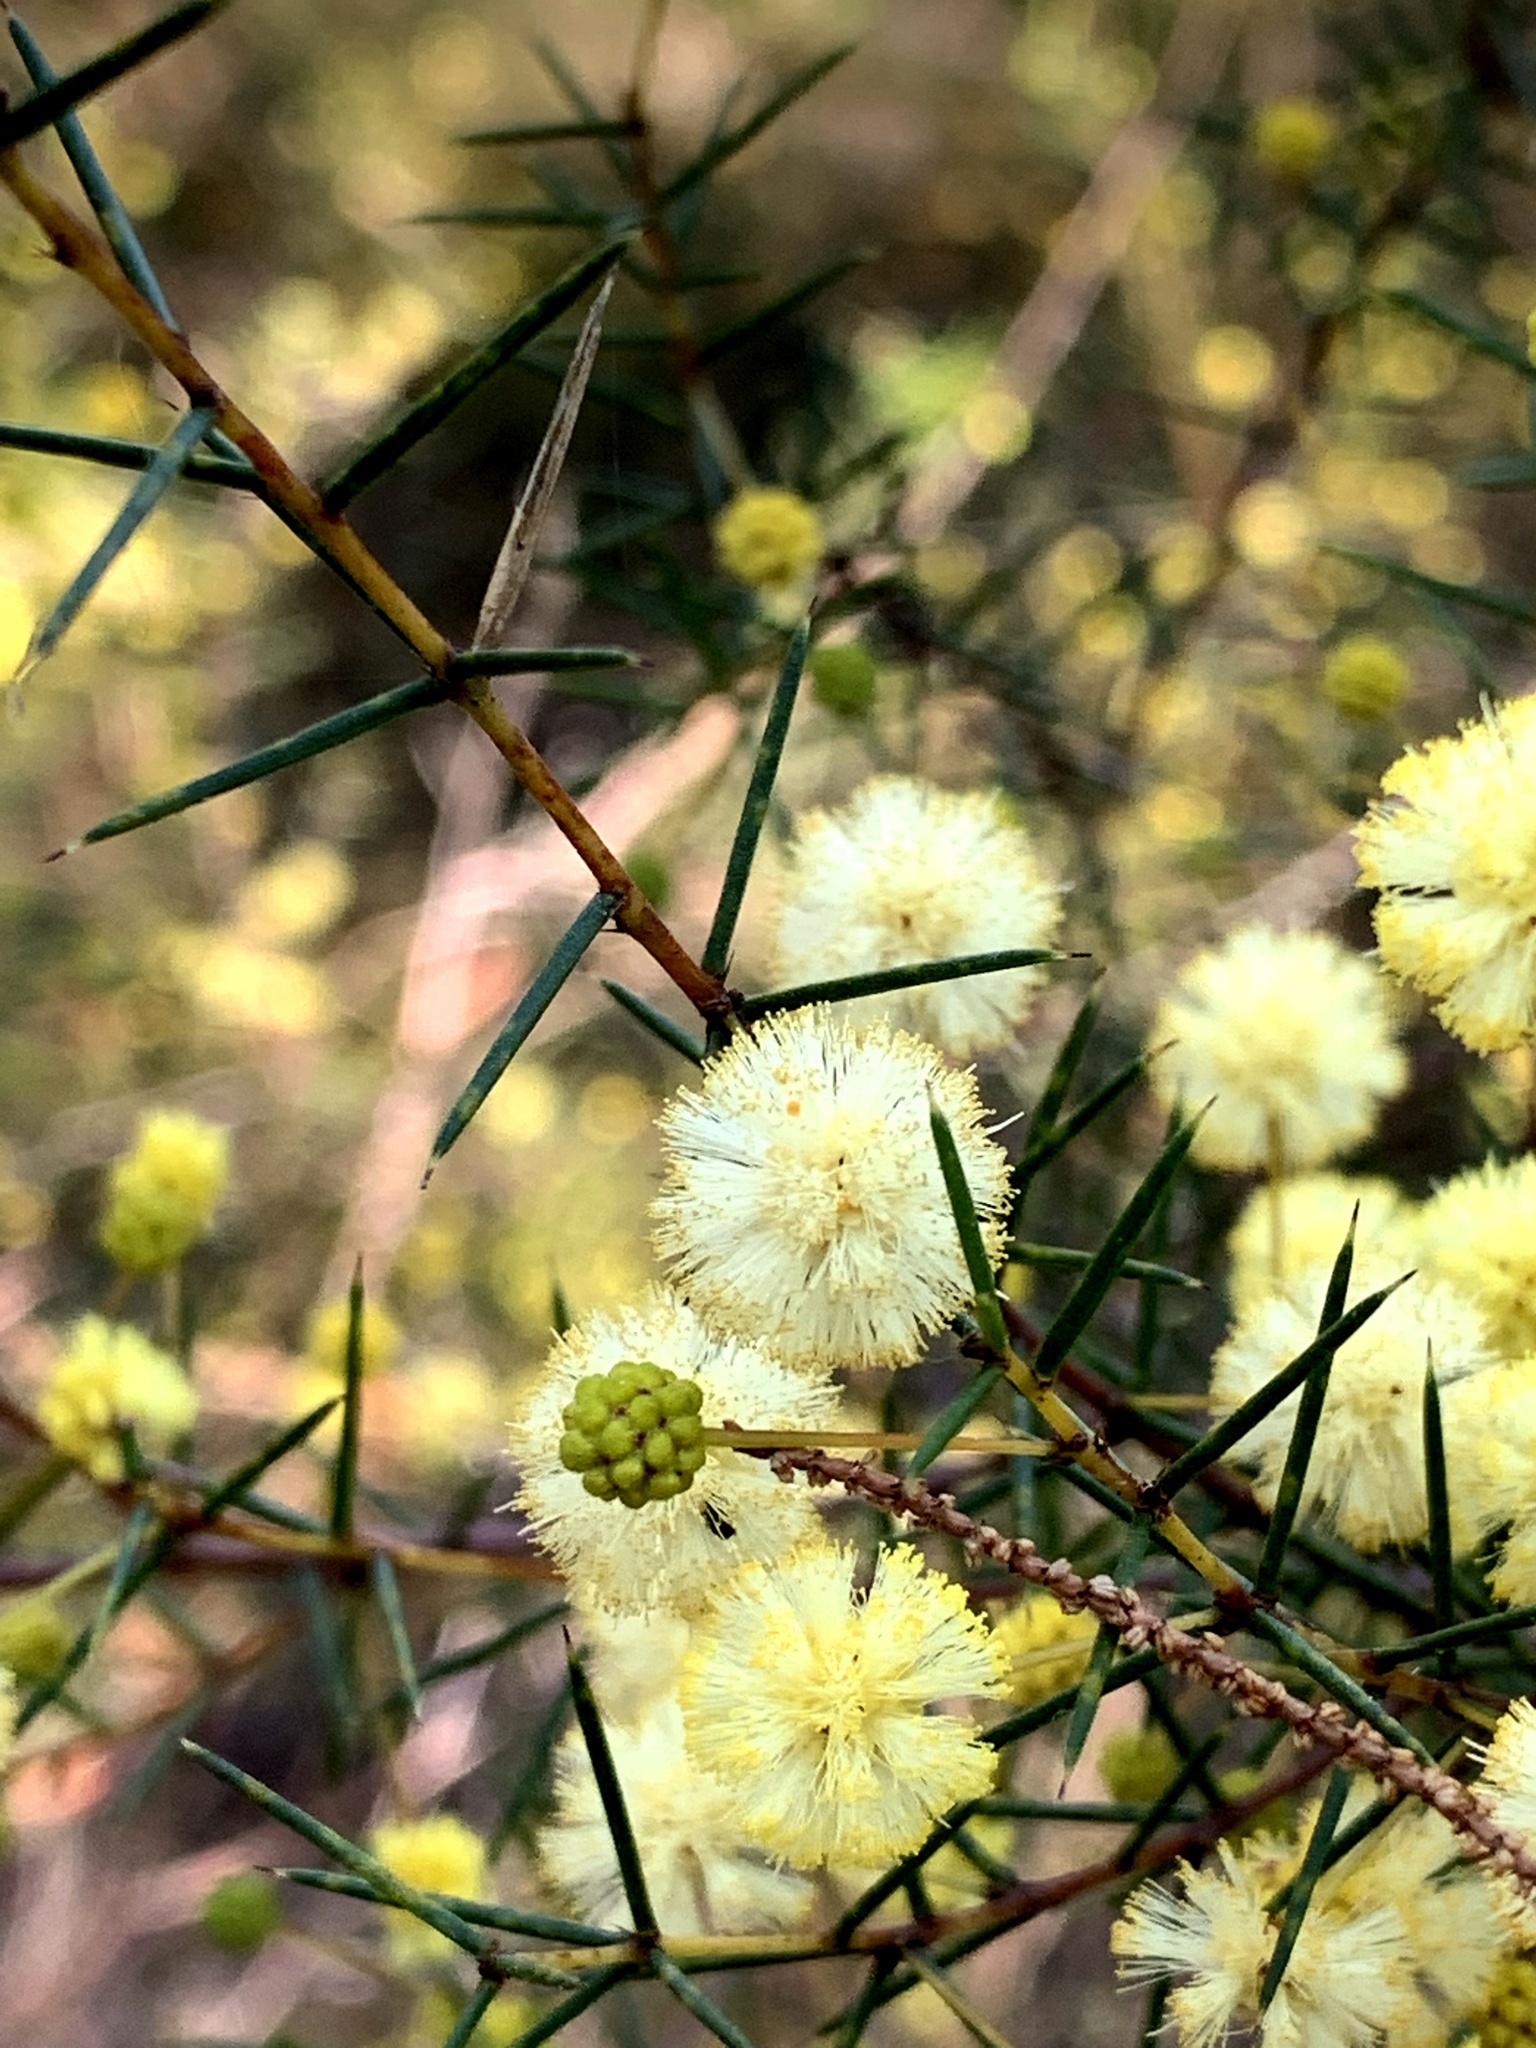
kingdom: Plantae
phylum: Tracheophyta
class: Magnoliopsida
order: Fabales
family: Fabaceae
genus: Acacia
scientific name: Acacia brownii
